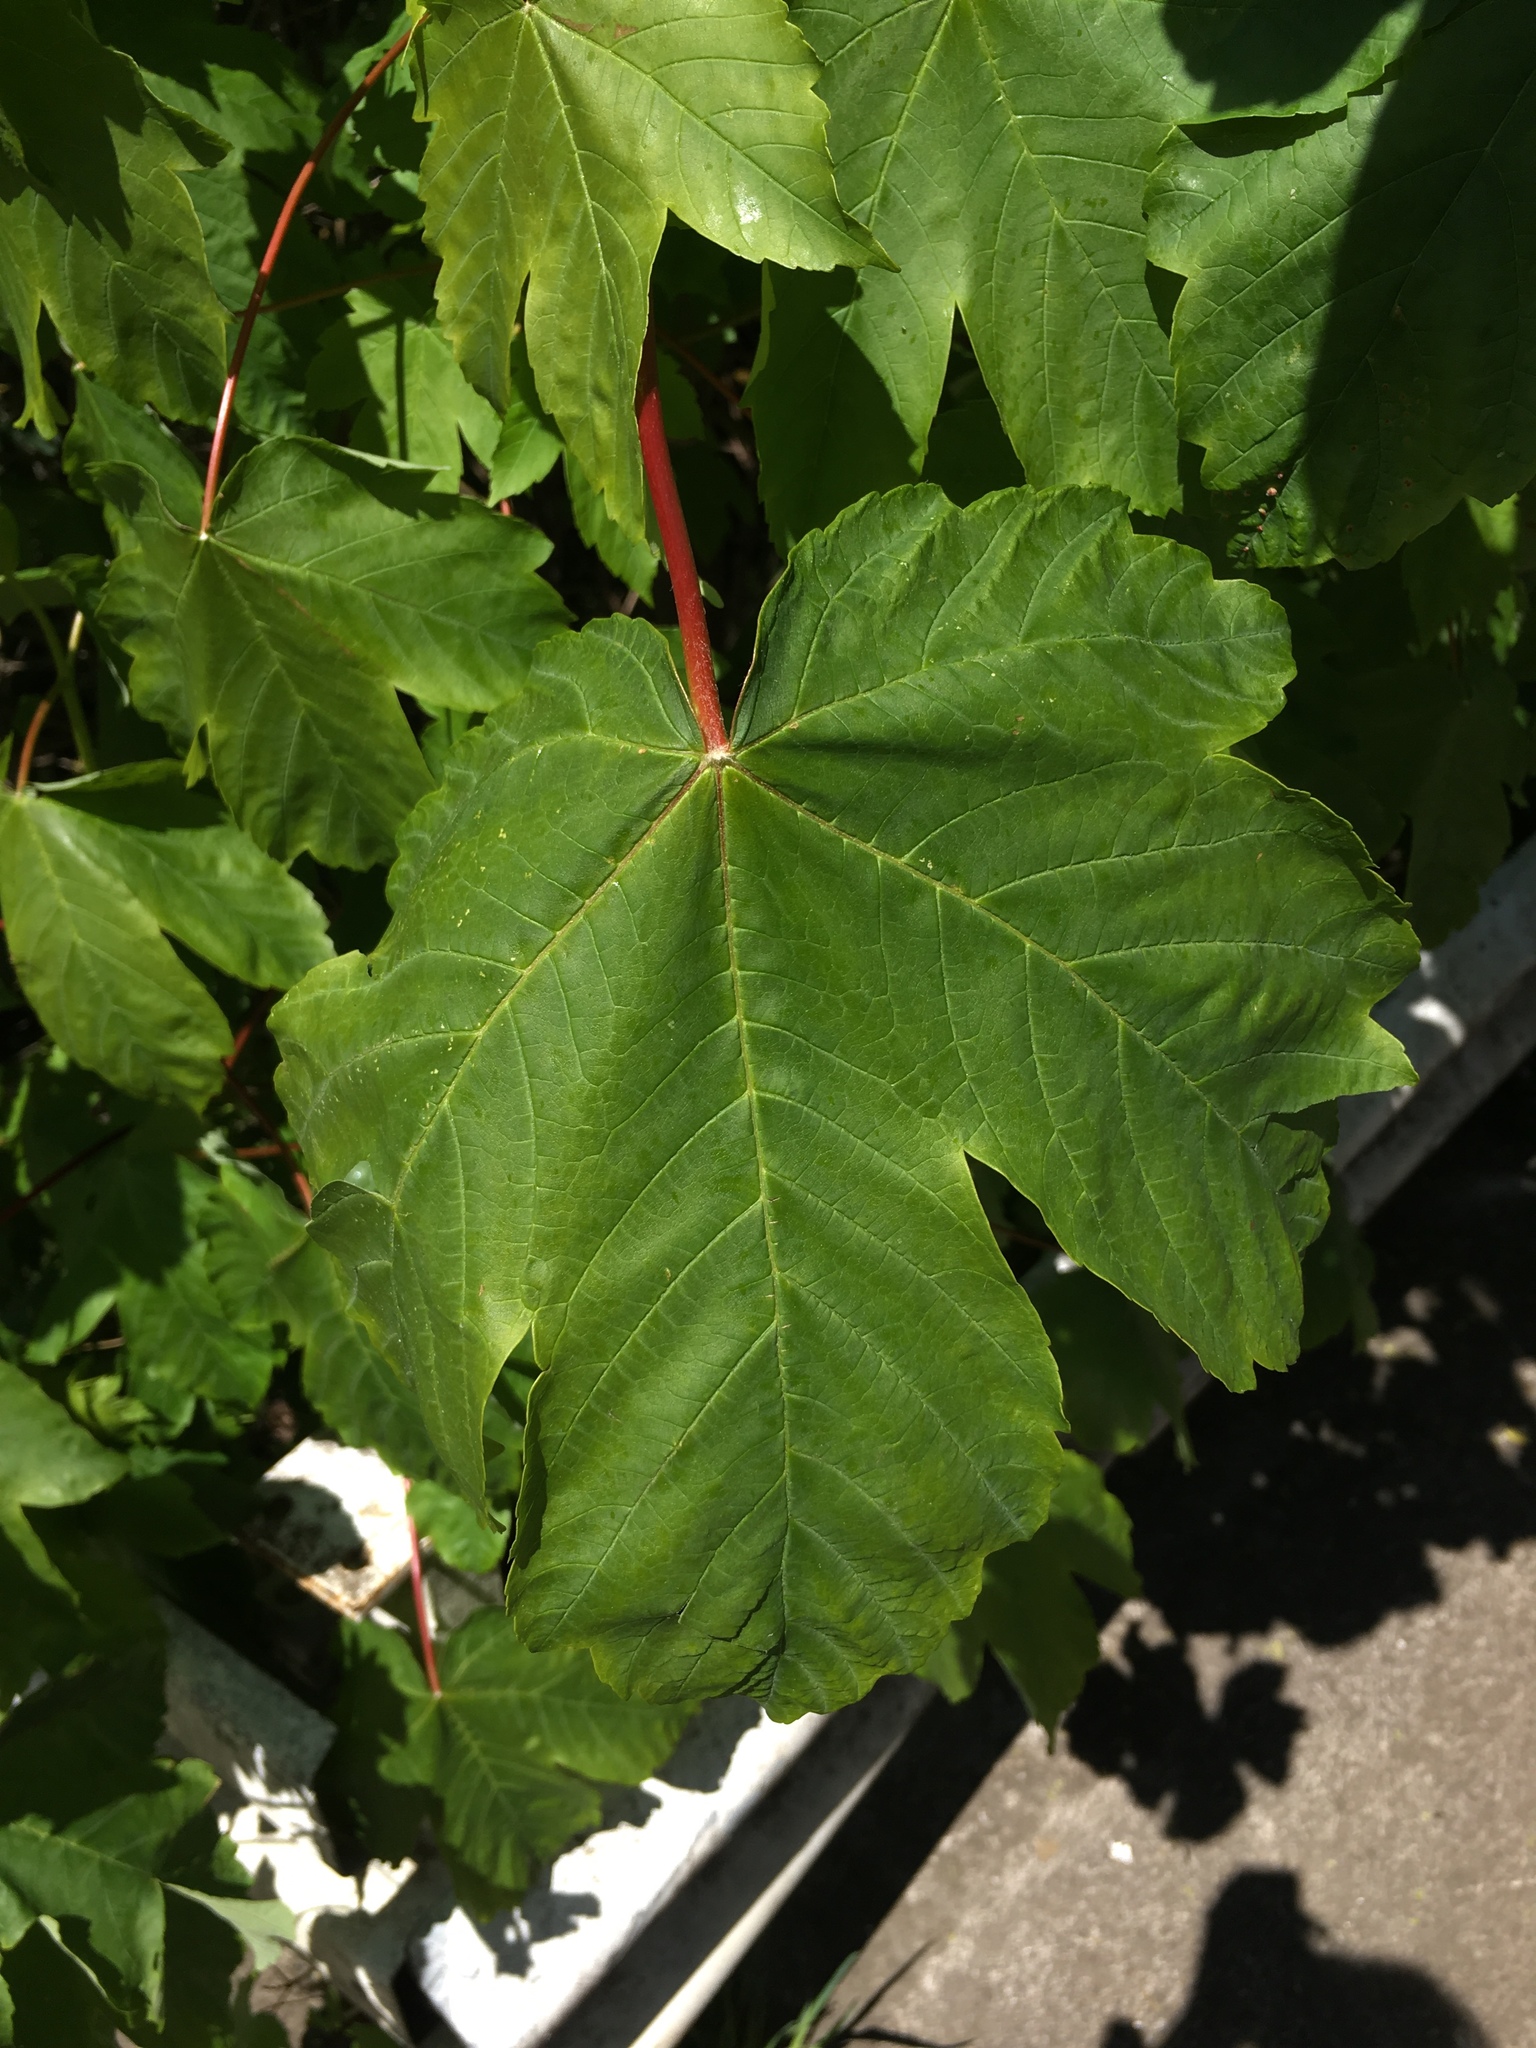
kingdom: Plantae
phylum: Tracheophyta
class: Magnoliopsida
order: Sapindales
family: Sapindaceae
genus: Acer
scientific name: Acer pseudoplatanus
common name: Sycamore
